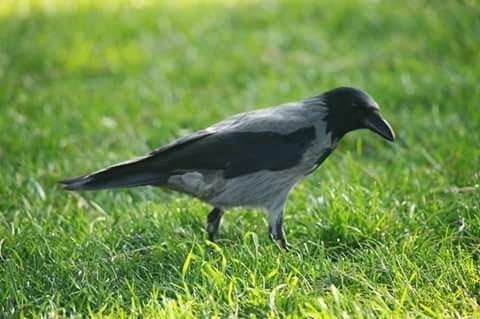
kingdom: Animalia
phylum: Chordata
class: Aves
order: Passeriformes
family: Corvidae
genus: Corvus
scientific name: Corvus cornix
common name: Hooded crow
